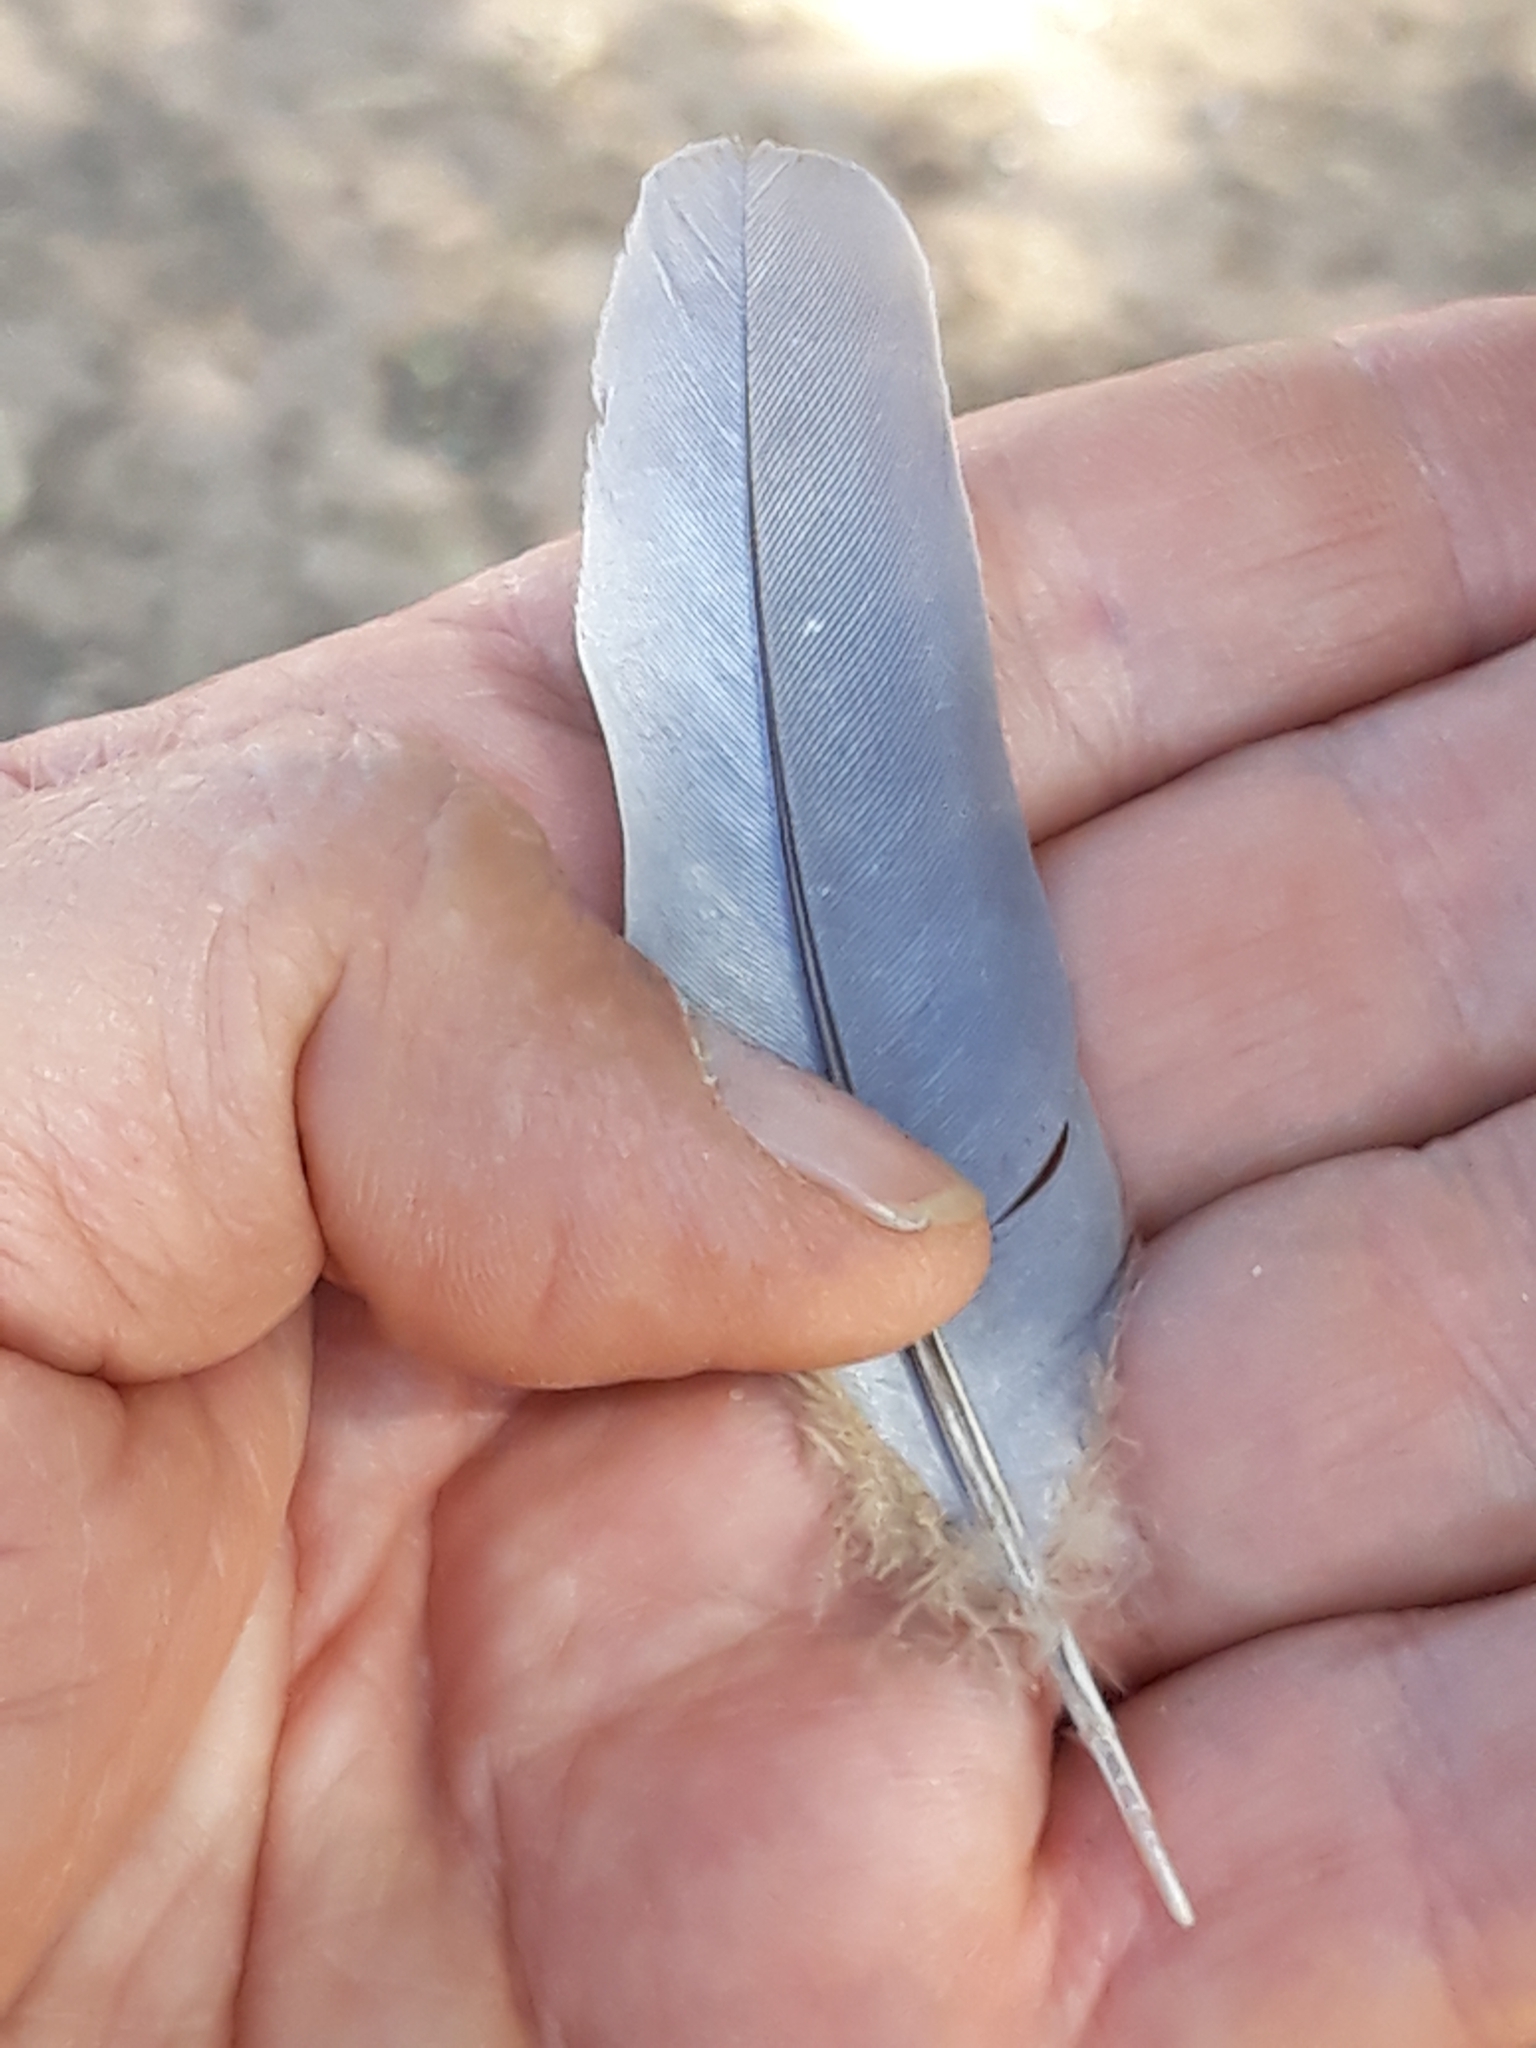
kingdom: Animalia
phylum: Chordata
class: Aves
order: Columbiformes
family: Columbidae
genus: Spilopelia
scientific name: Spilopelia senegalensis
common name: Laughing dove
